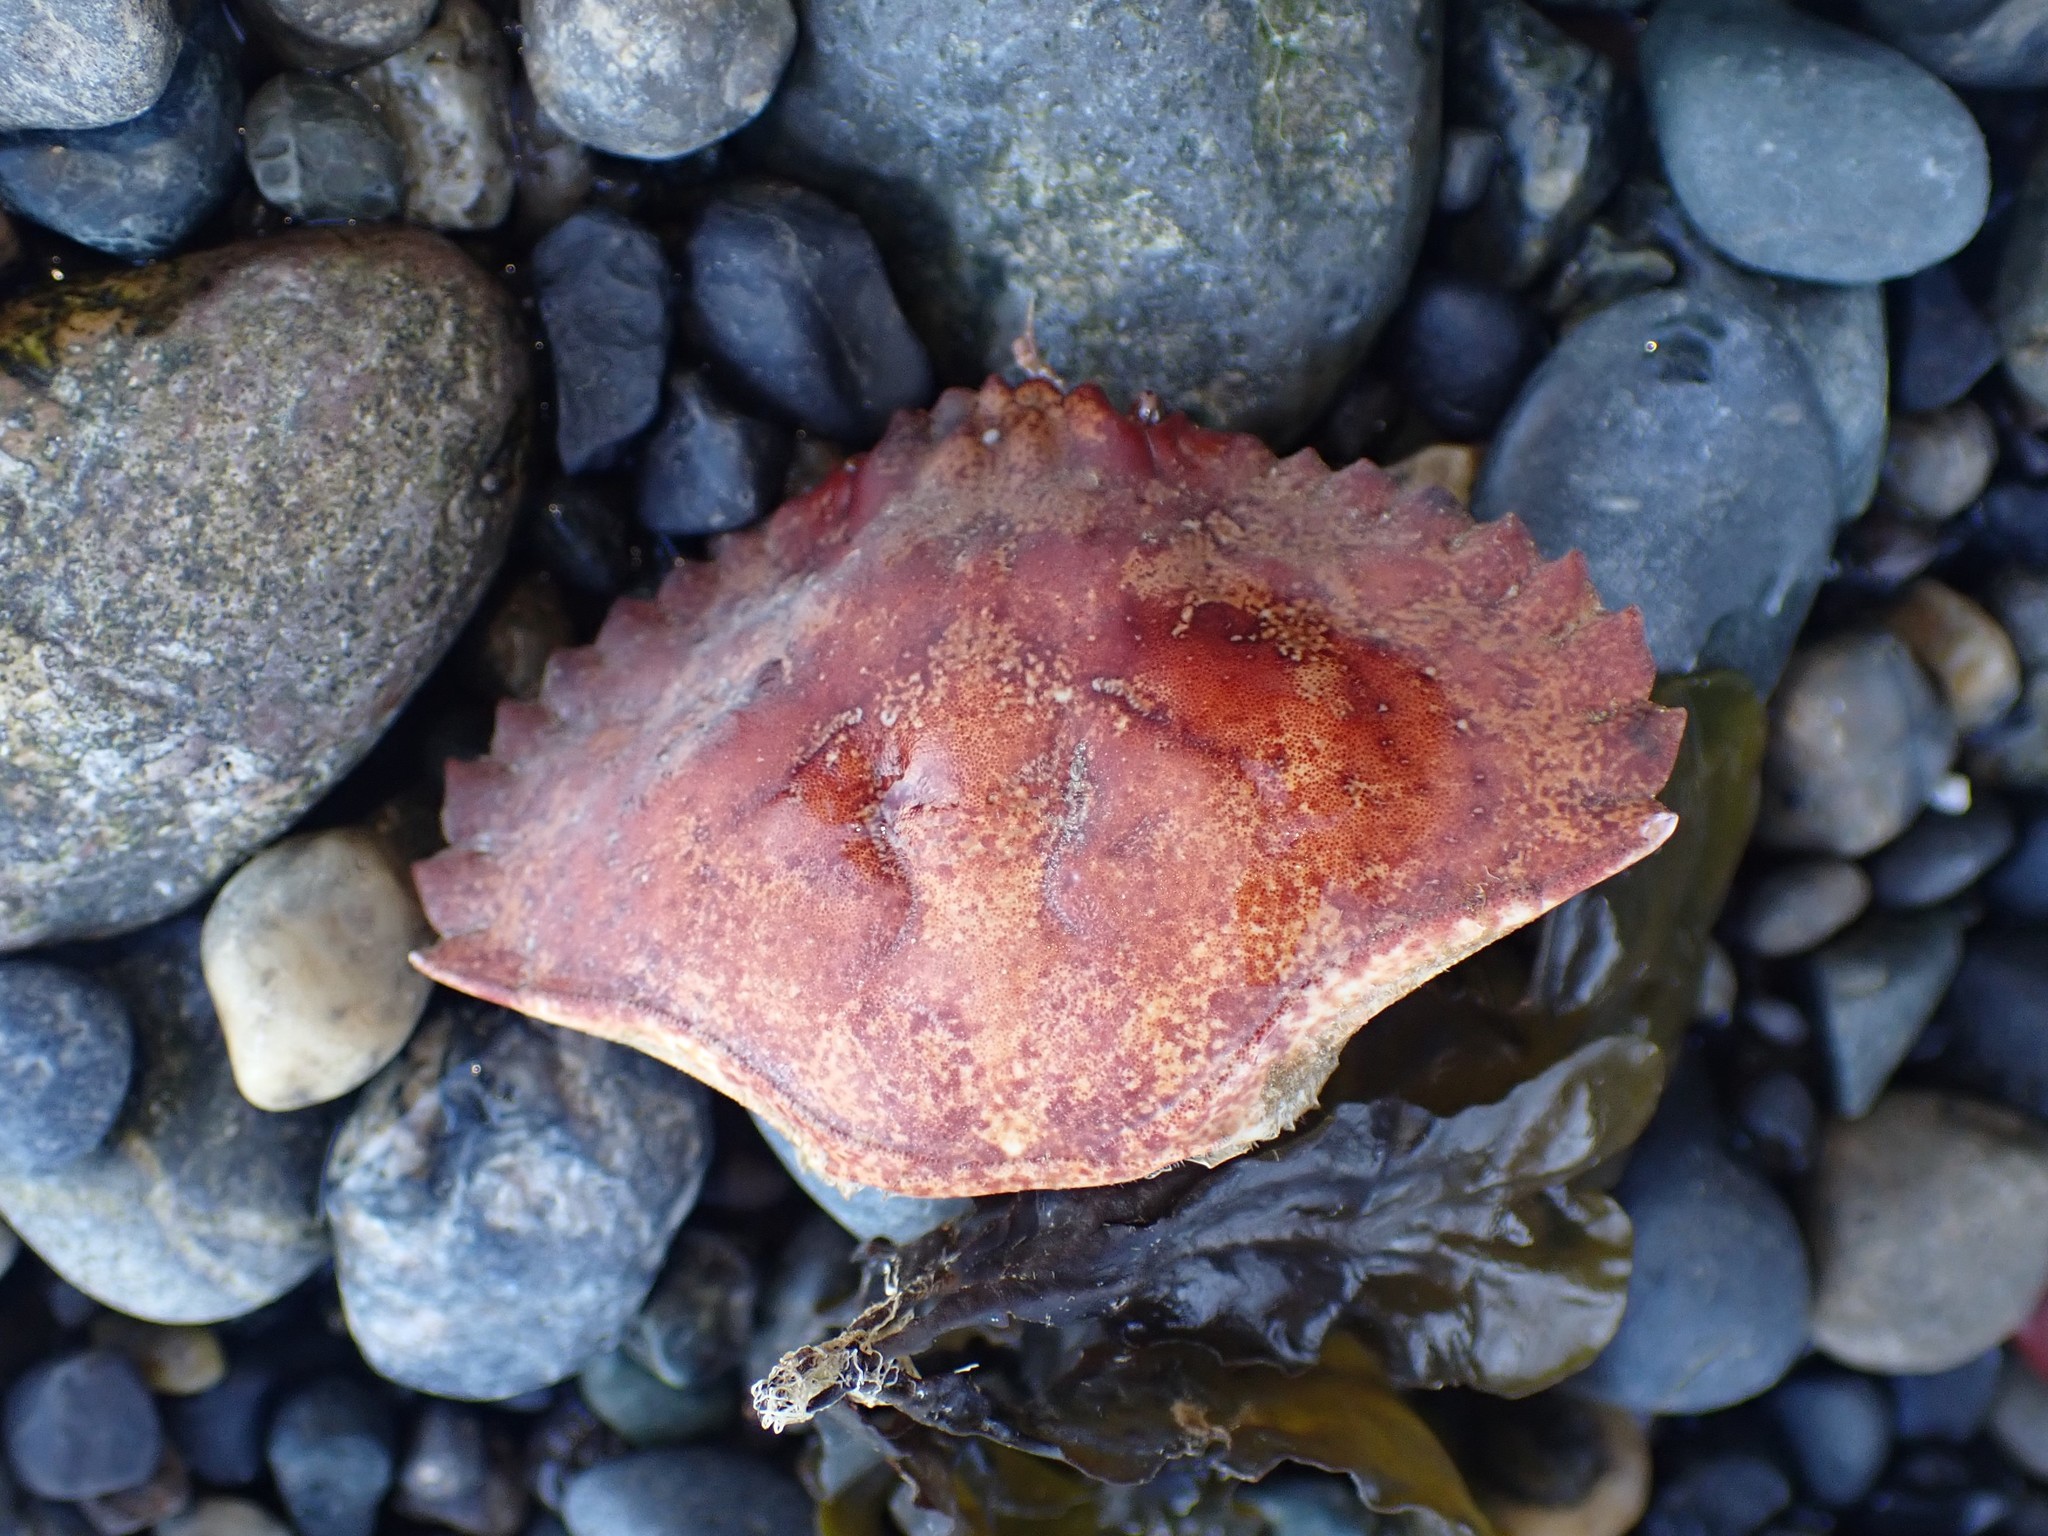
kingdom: Animalia
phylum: Arthropoda
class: Malacostraca
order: Decapoda
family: Cancridae
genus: Cancer
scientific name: Cancer productus
